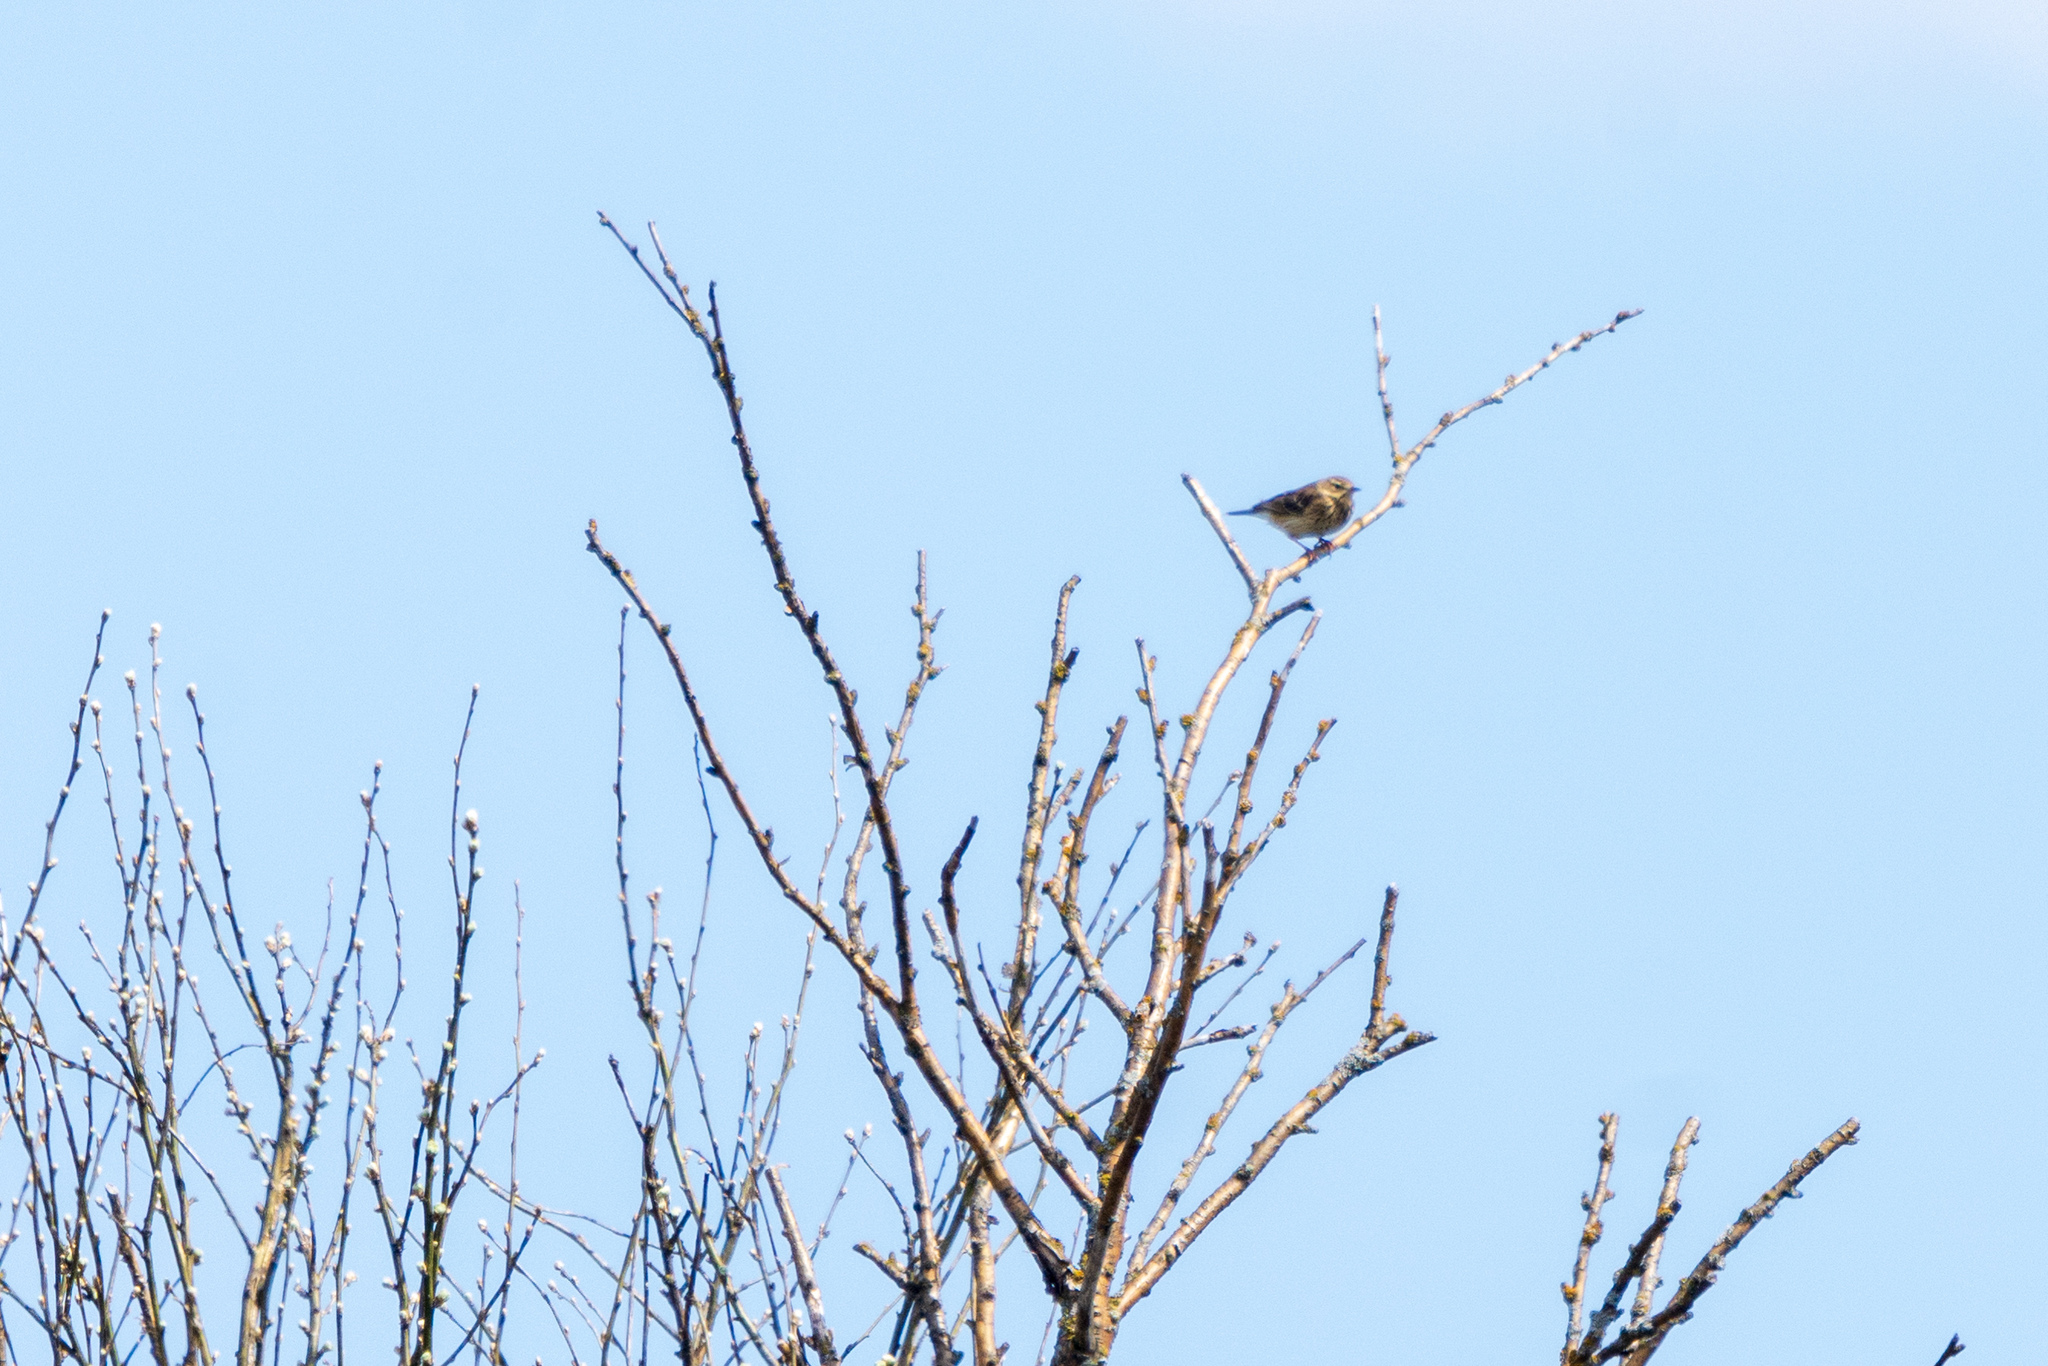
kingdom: Animalia
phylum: Chordata
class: Aves
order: Passeriformes
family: Motacillidae
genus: Anthus
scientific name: Anthus trivialis
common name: Tree pipit
